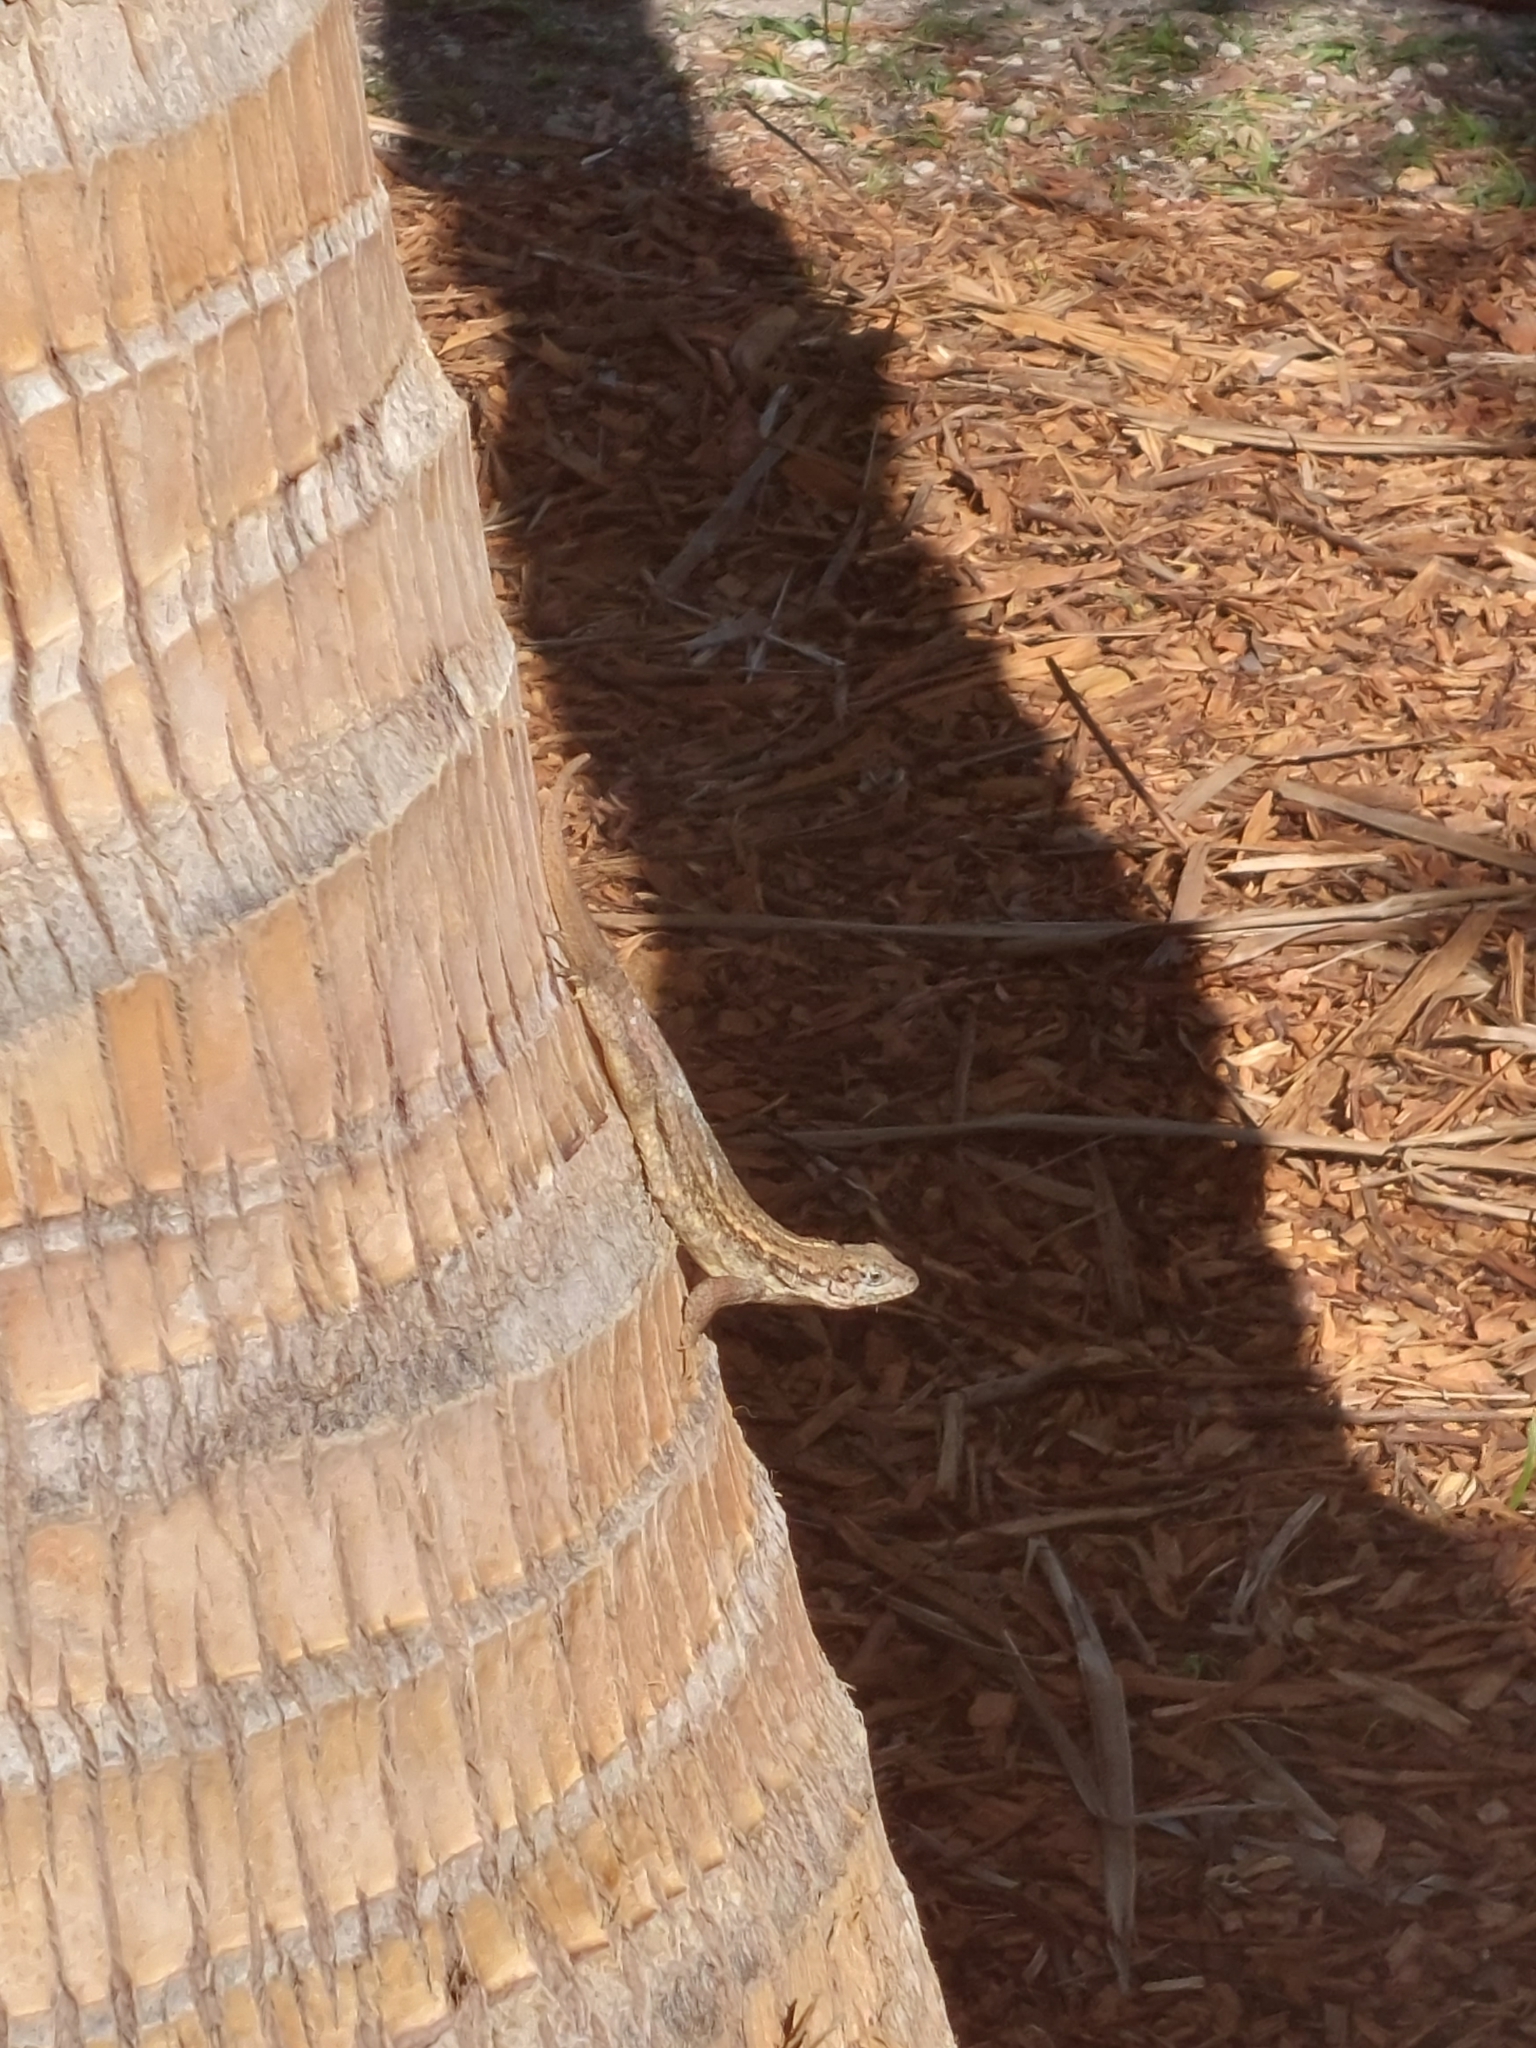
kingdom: Animalia
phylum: Chordata
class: Squamata
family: Leiocephalidae
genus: Leiocephalus
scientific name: Leiocephalus carinatus
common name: Northern curly-tailed lizard
